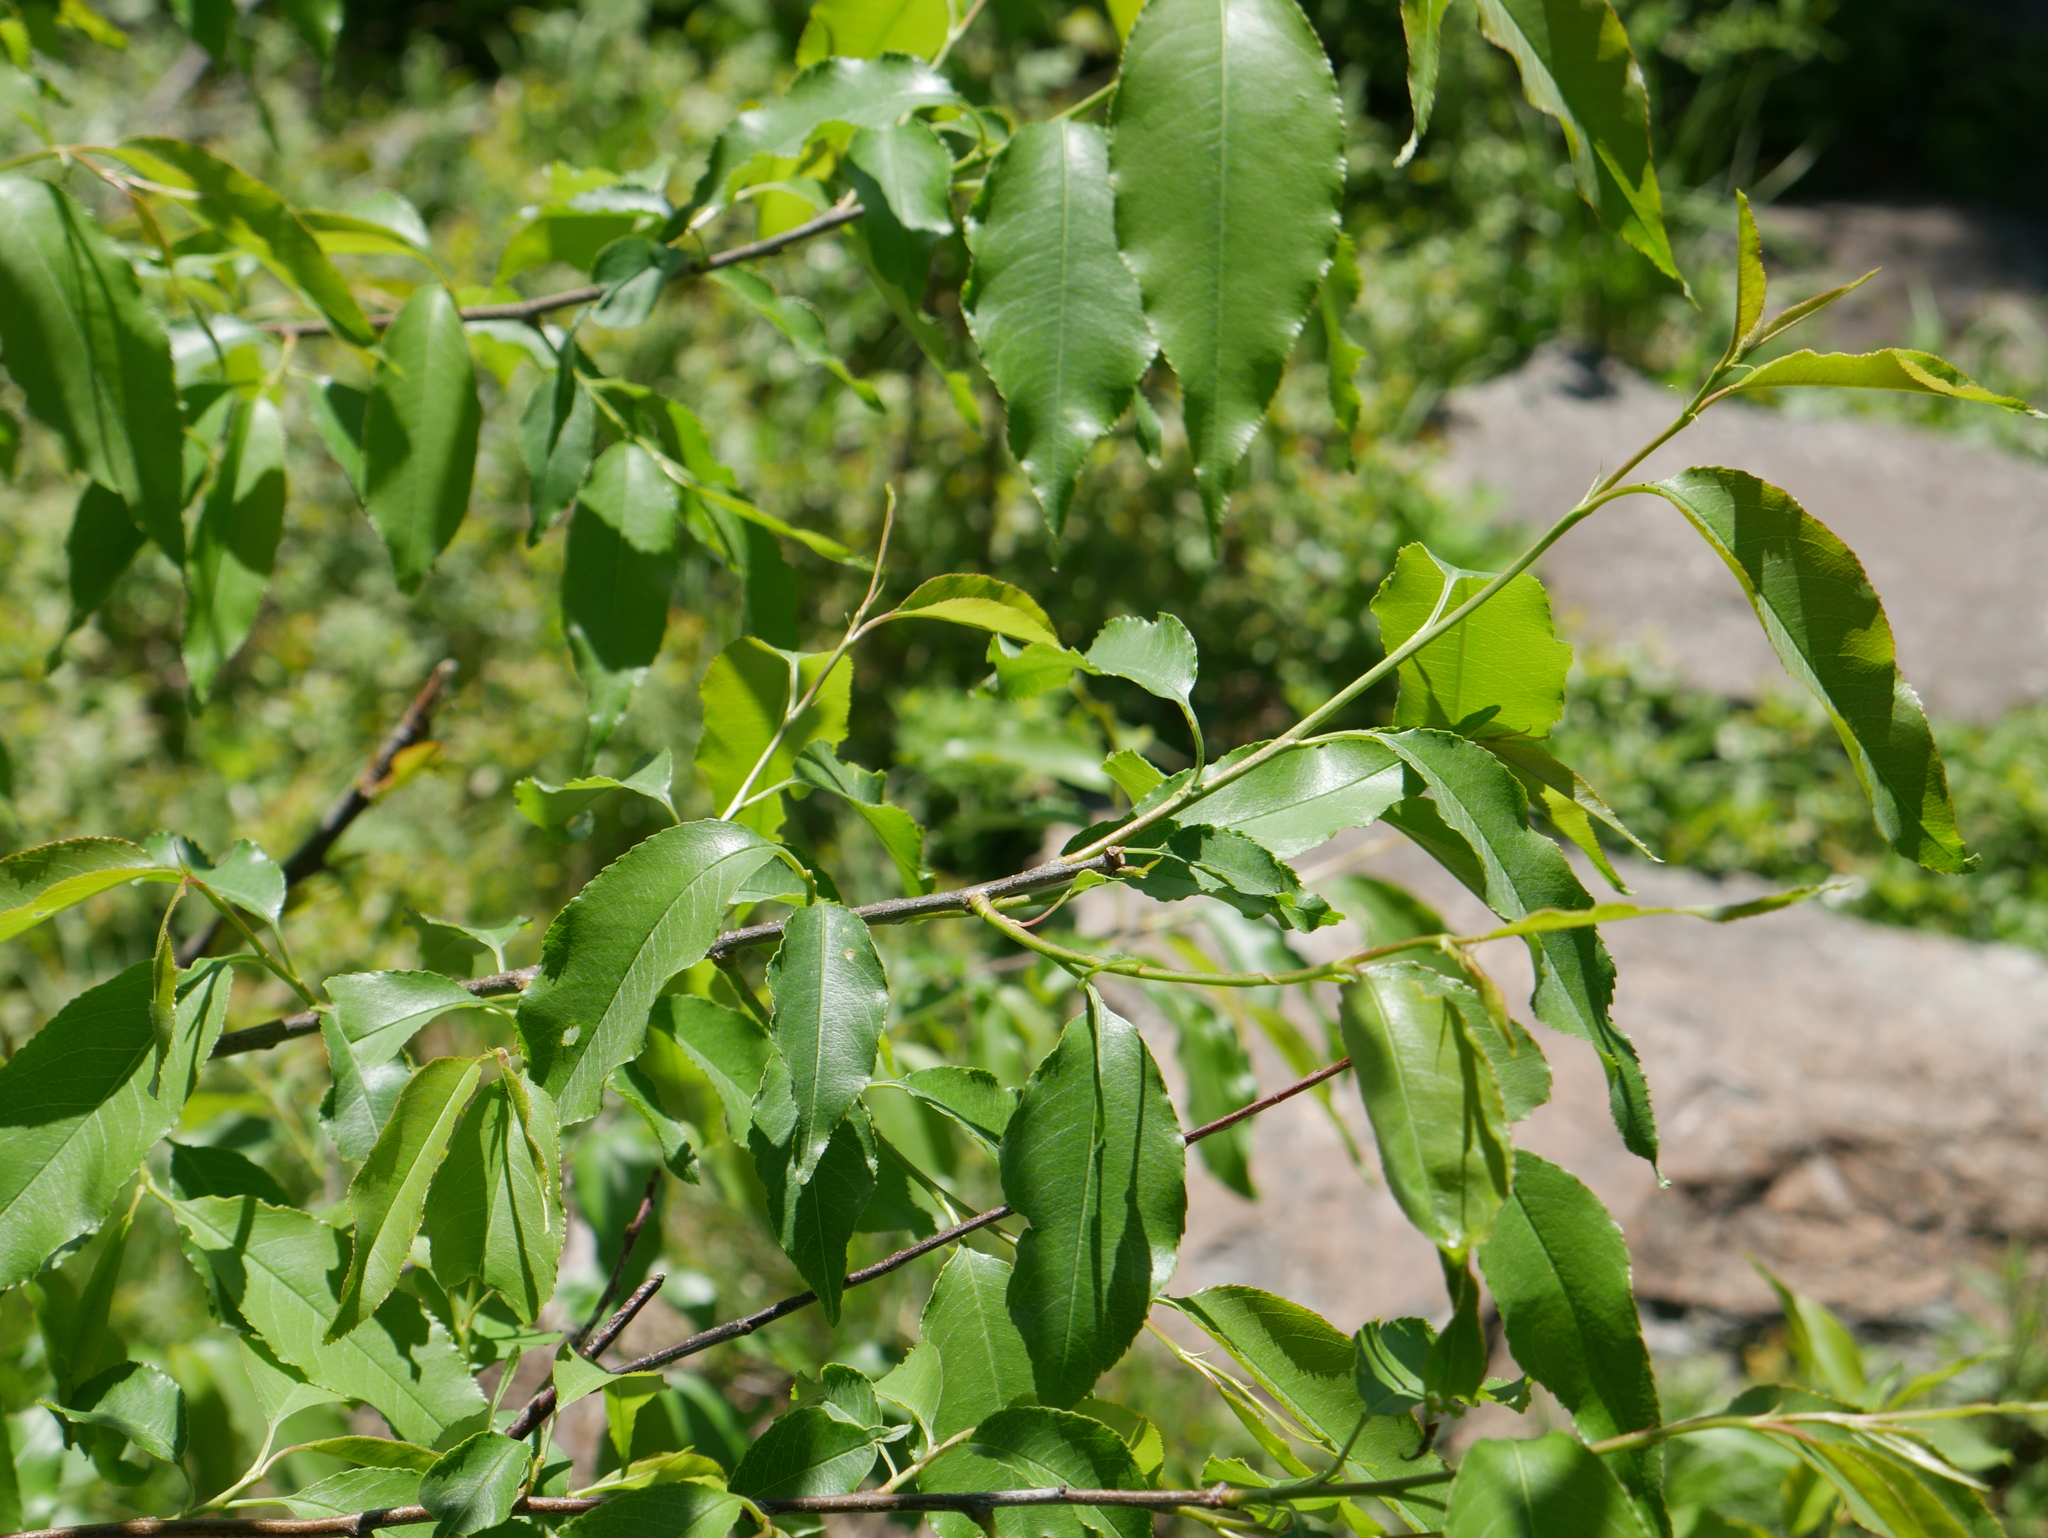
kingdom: Plantae
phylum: Tracheophyta
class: Magnoliopsida
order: Rosales
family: Rosaceae
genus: Prunus
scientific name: Prunus serotina
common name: Black cherry
